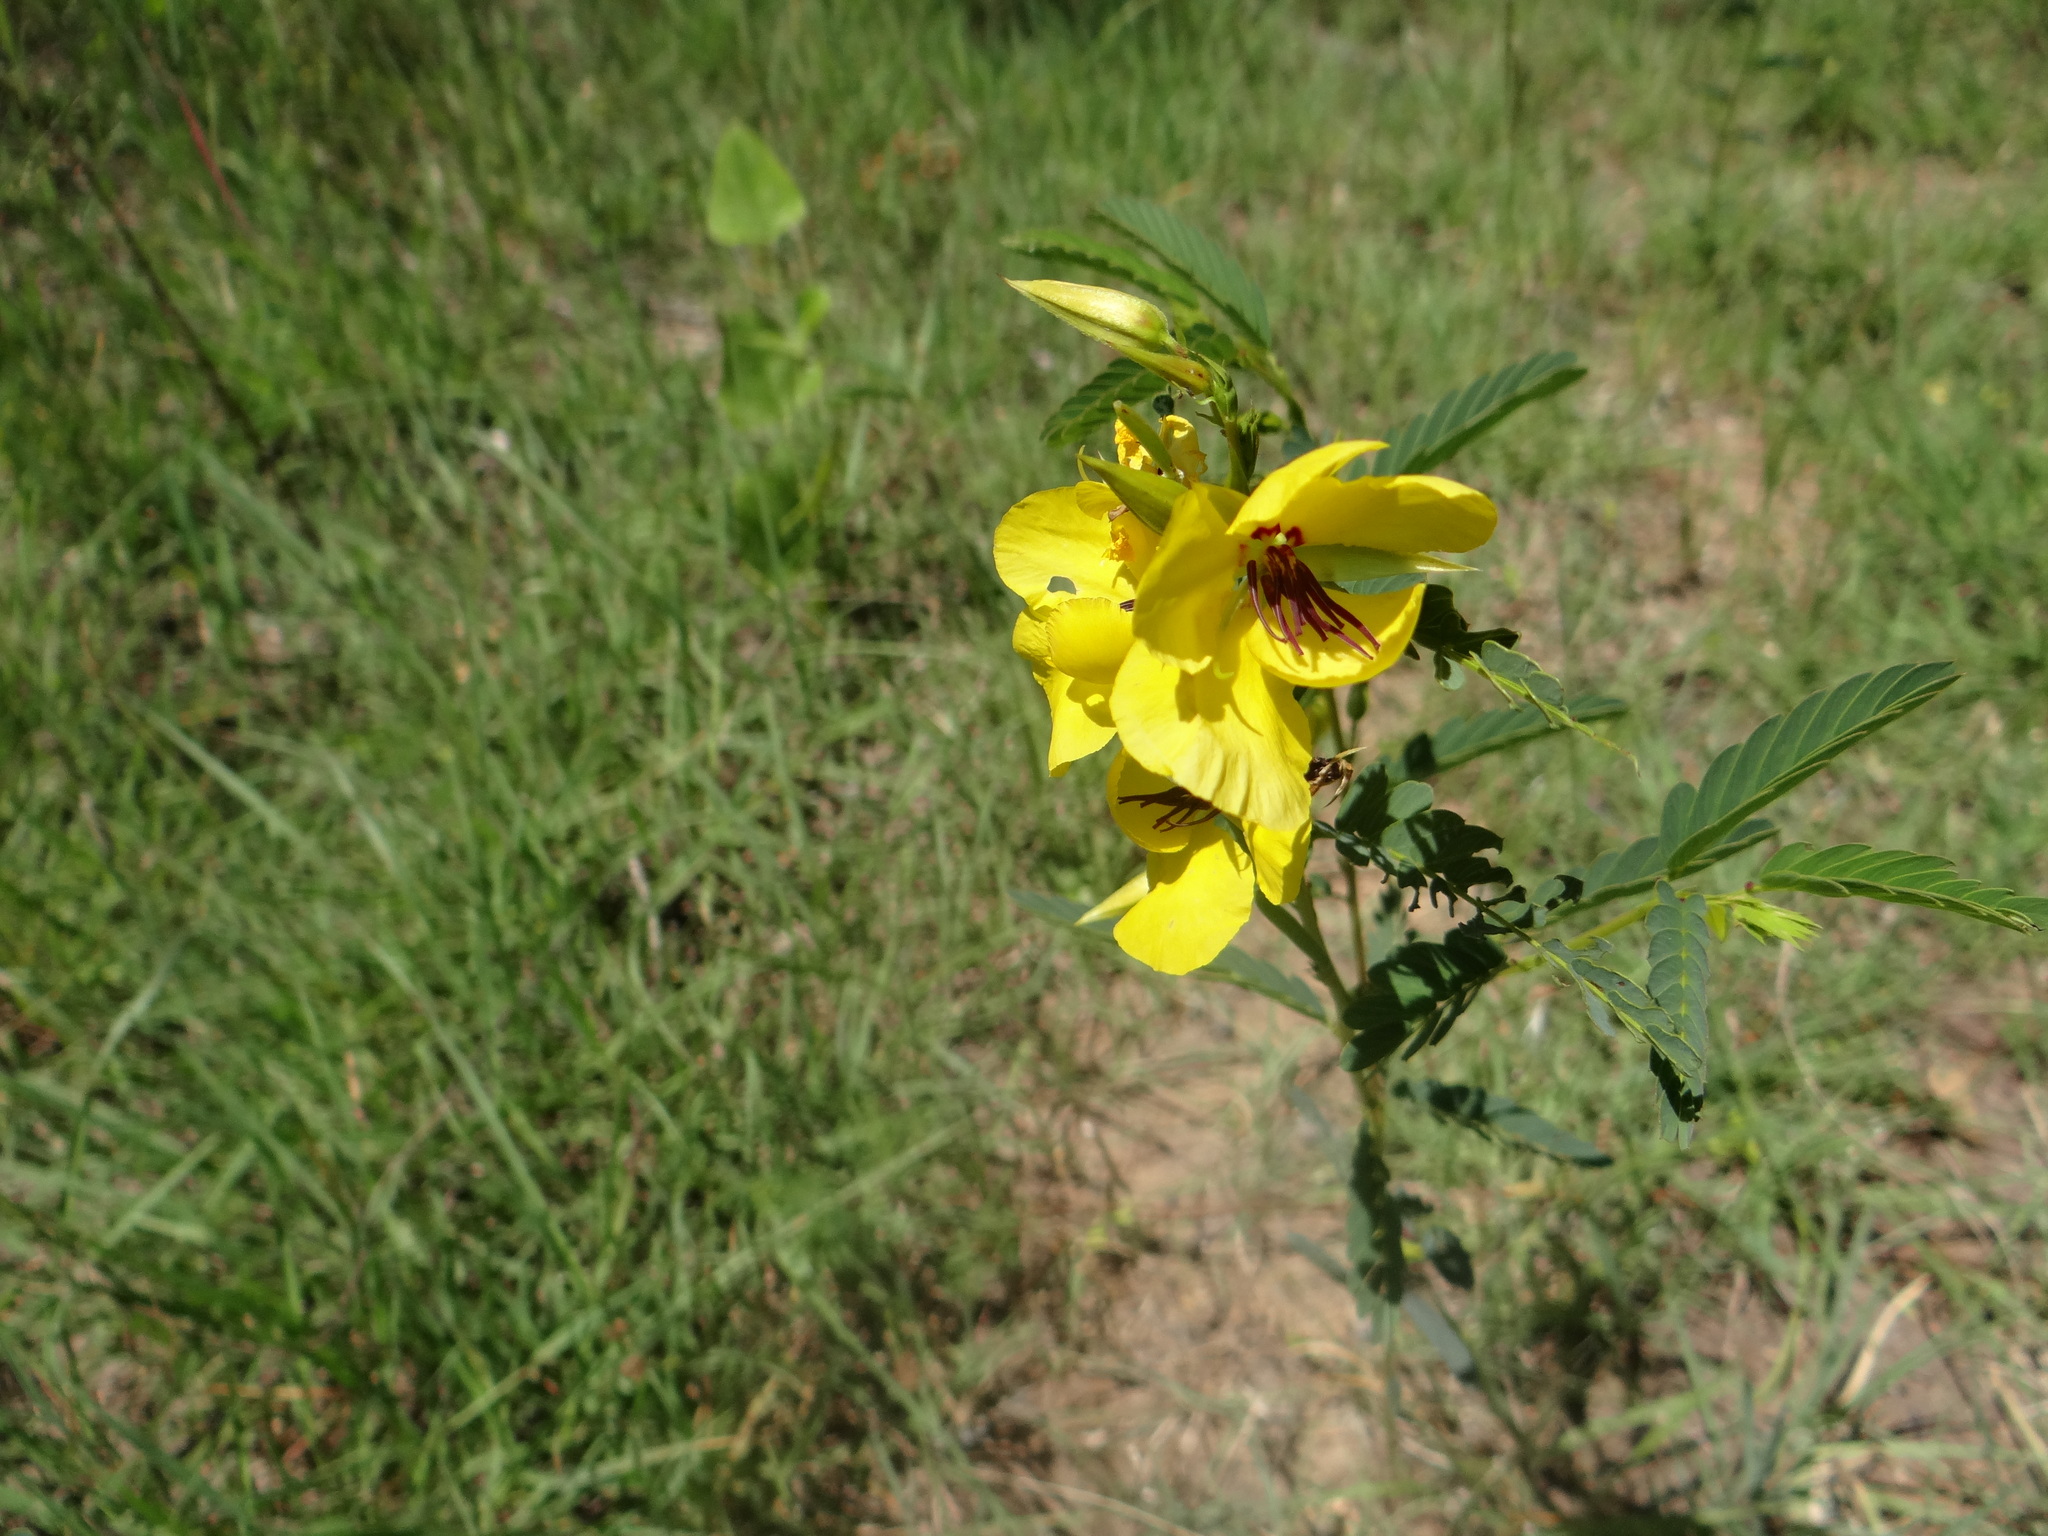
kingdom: Plantae
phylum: Tracheophyta
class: Magnoliopsida
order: Fabales
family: Fabaceae
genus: Chamaecrista
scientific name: Chamaecrista fasciculata
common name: Golden cassia
